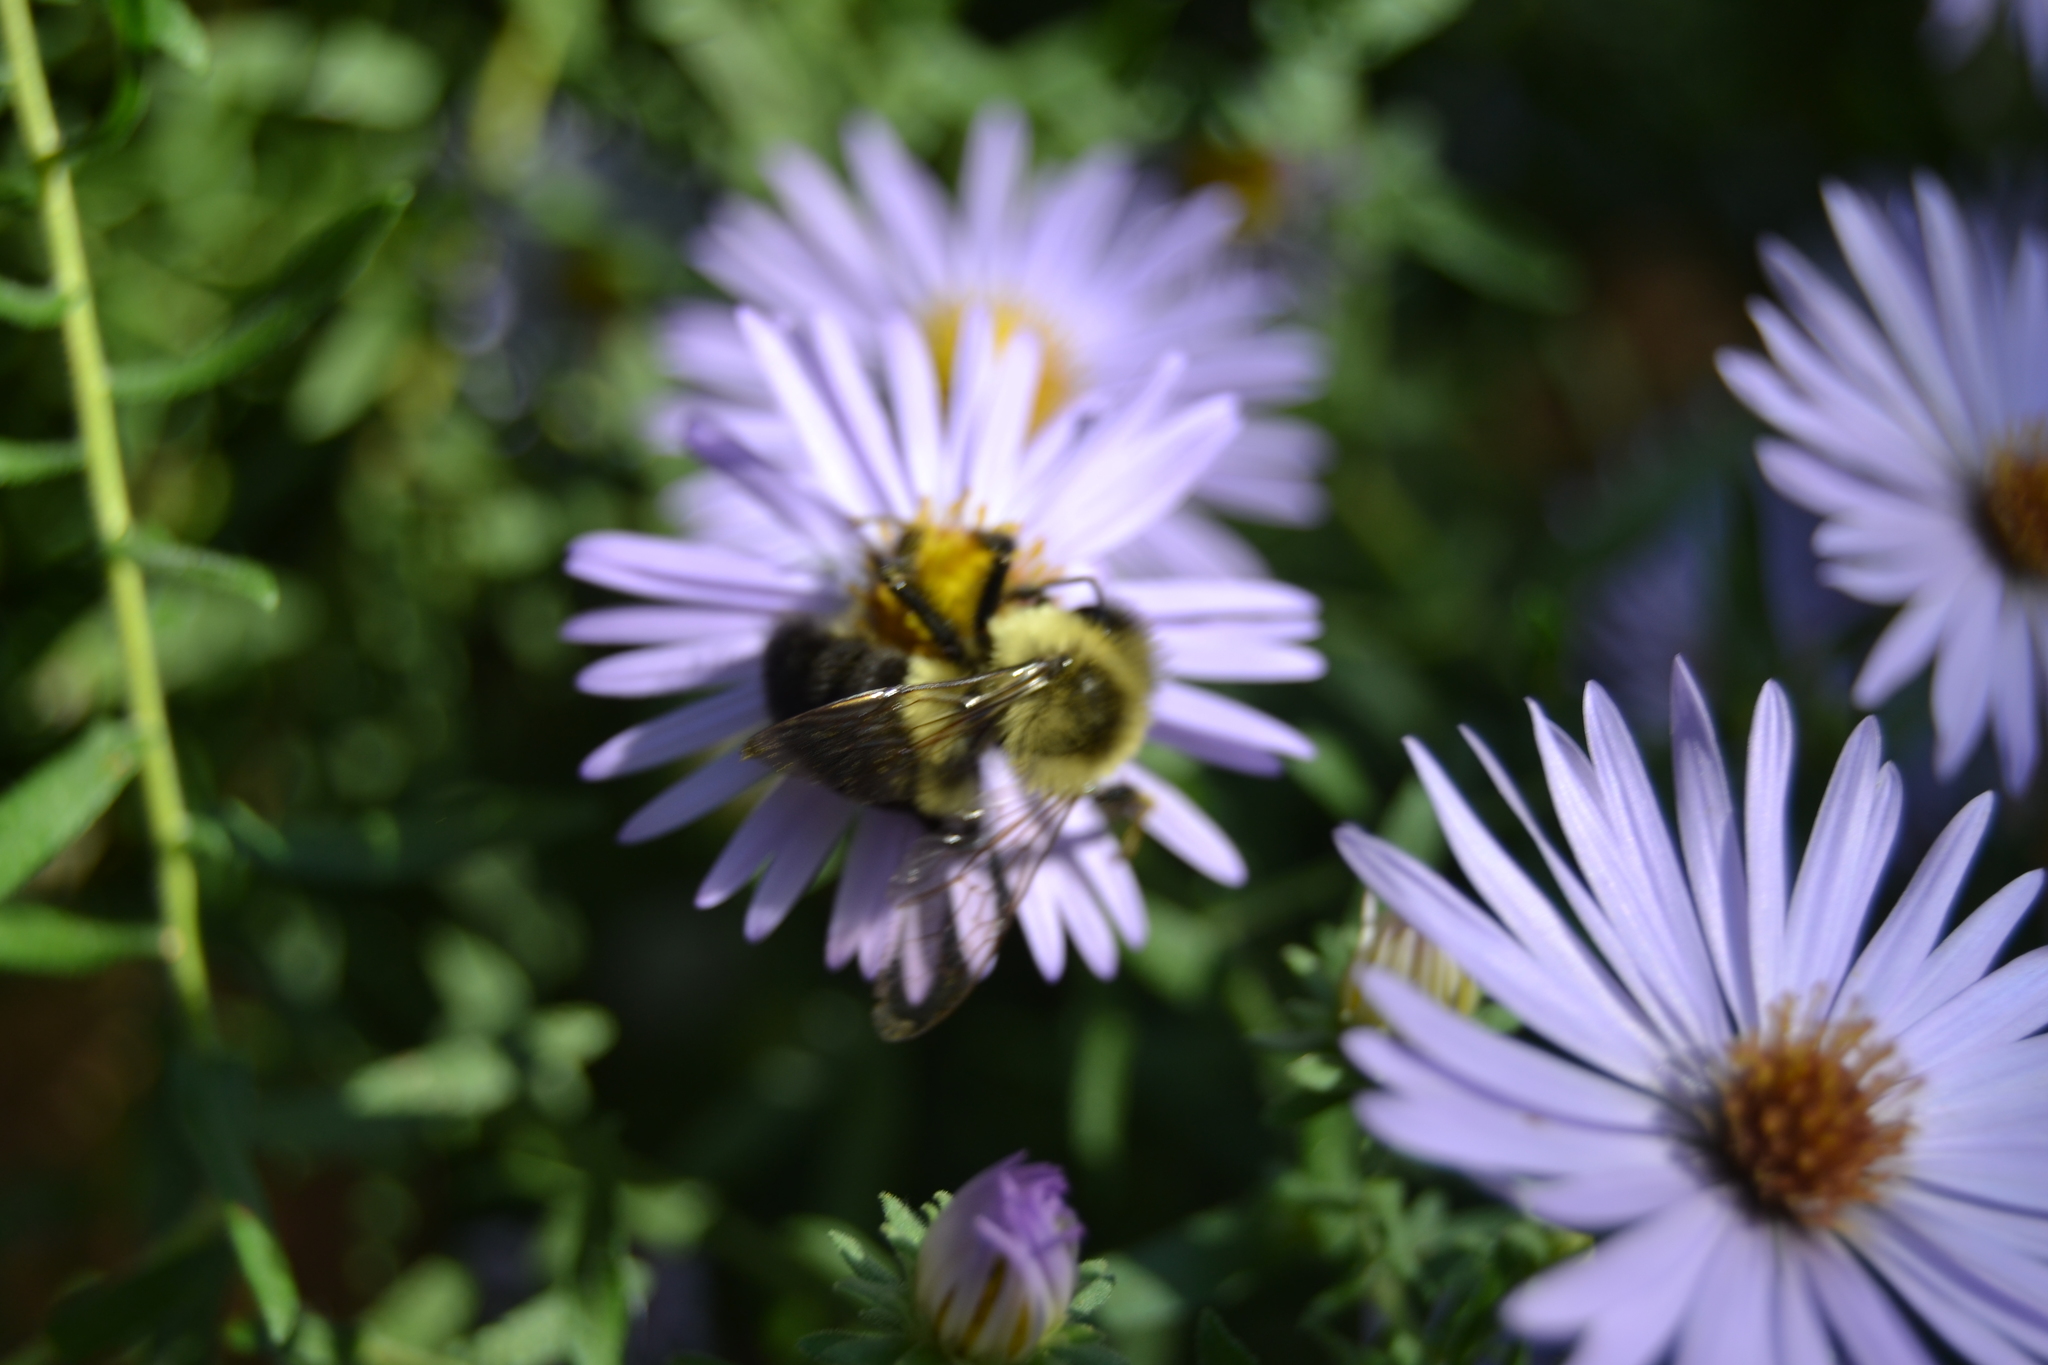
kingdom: Animalia
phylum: Arthropoda
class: Insecta
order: Hymenoptera
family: Apidae
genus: Bombus
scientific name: Bombus impatiens
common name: Common eastern bumble bee
